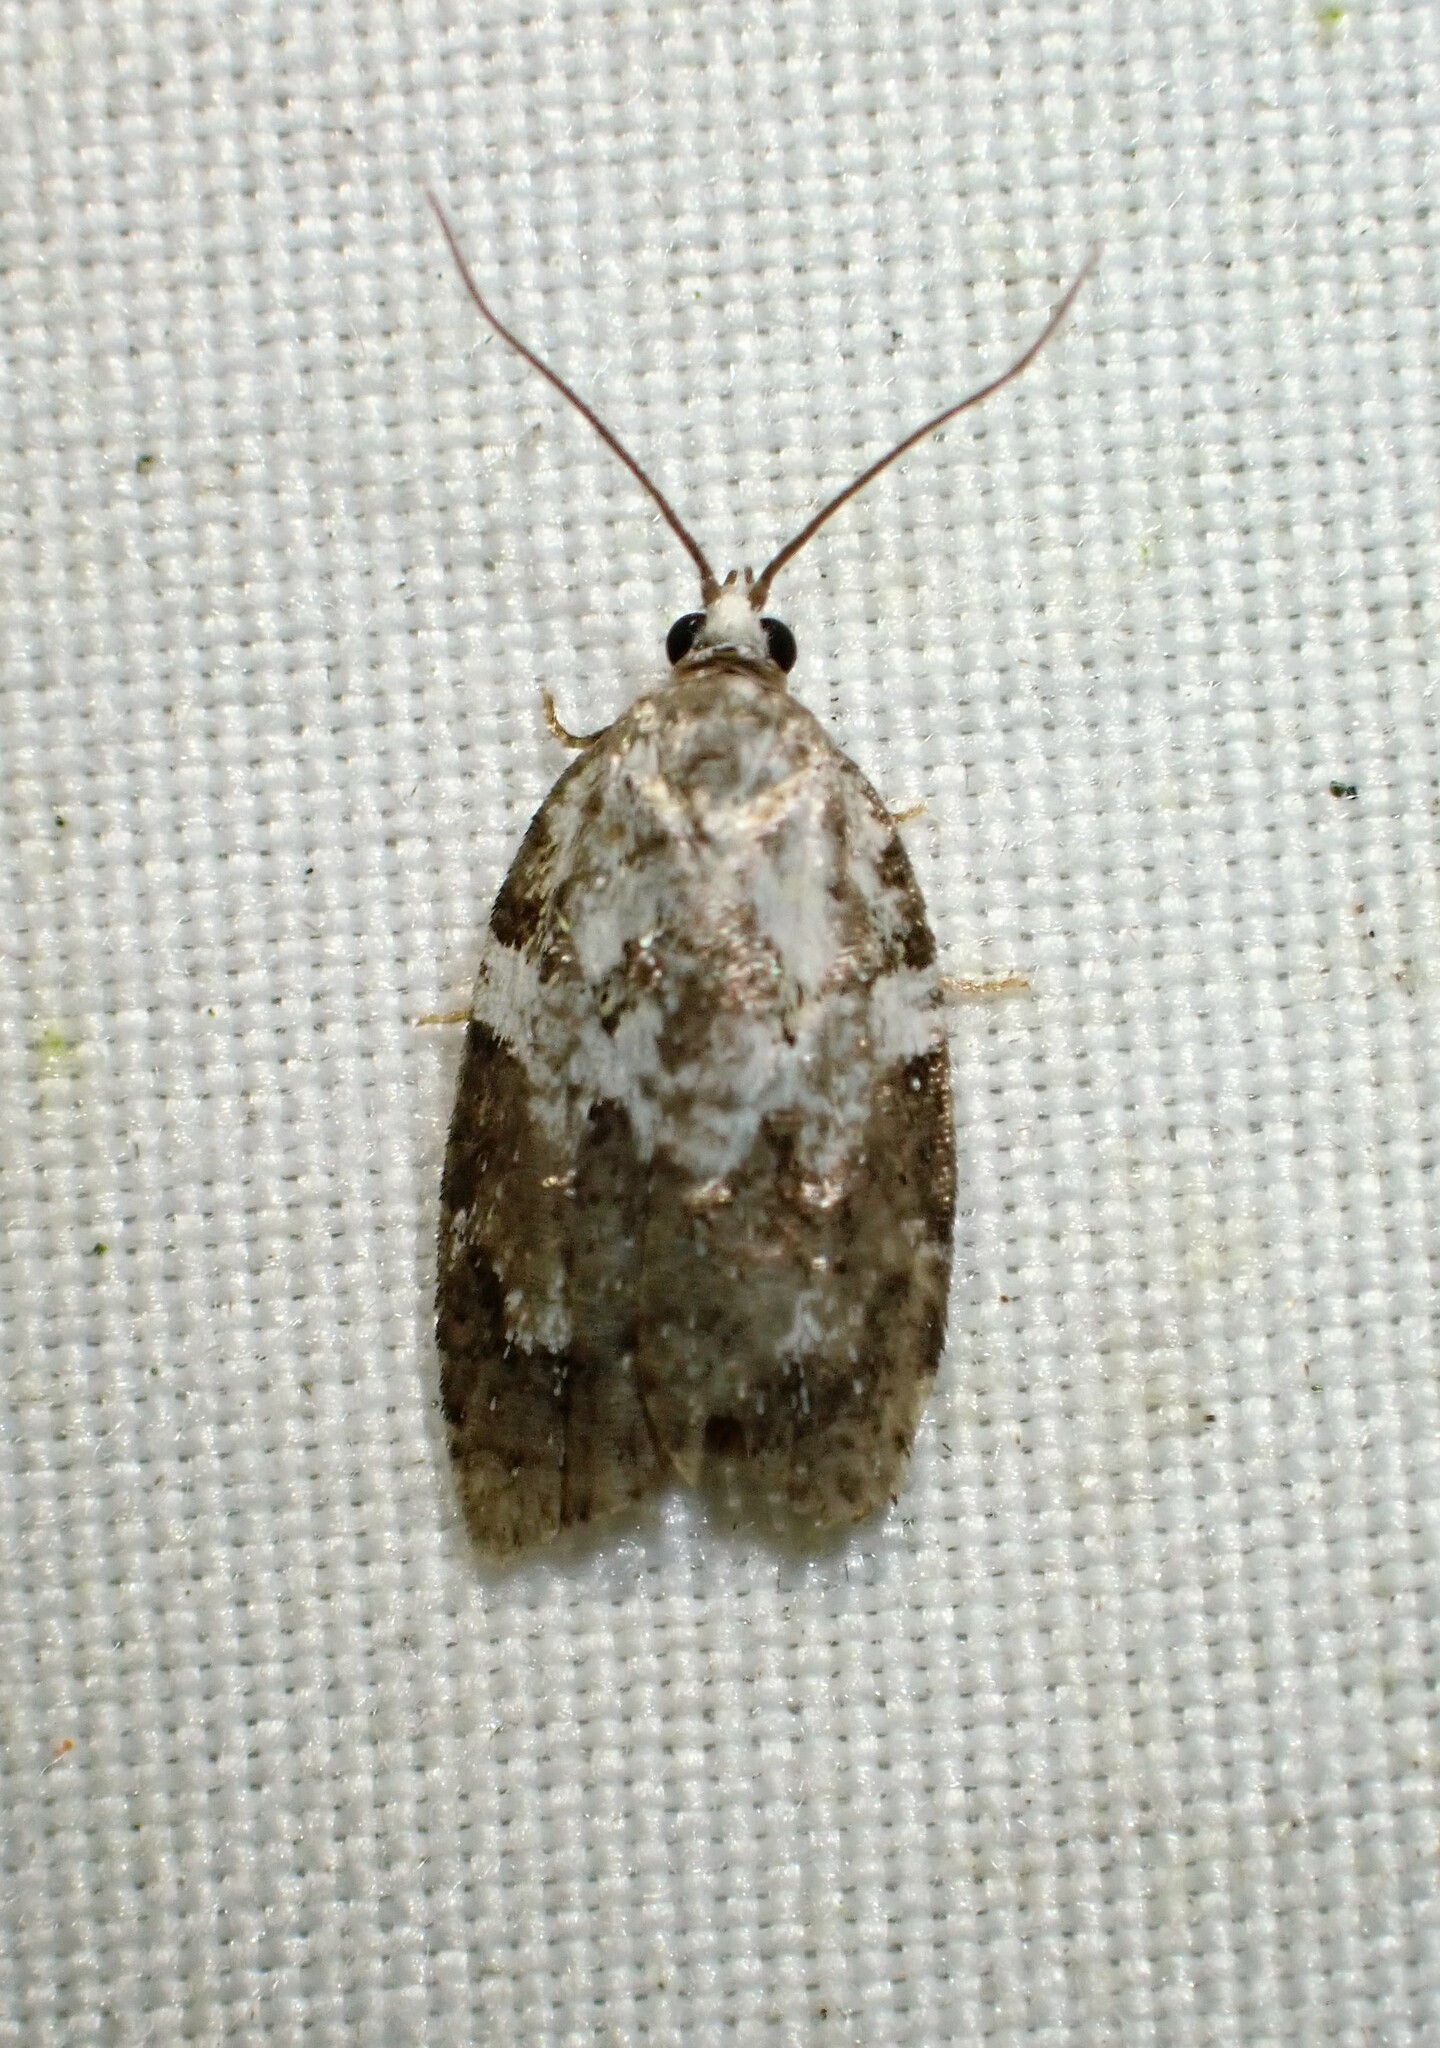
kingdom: Animalia
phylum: Arthropoda
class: Insecta
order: Lepidoptera
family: Tortricidae
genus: Acleris
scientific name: Acleris variana
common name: Eastern black-headed budworm moth
